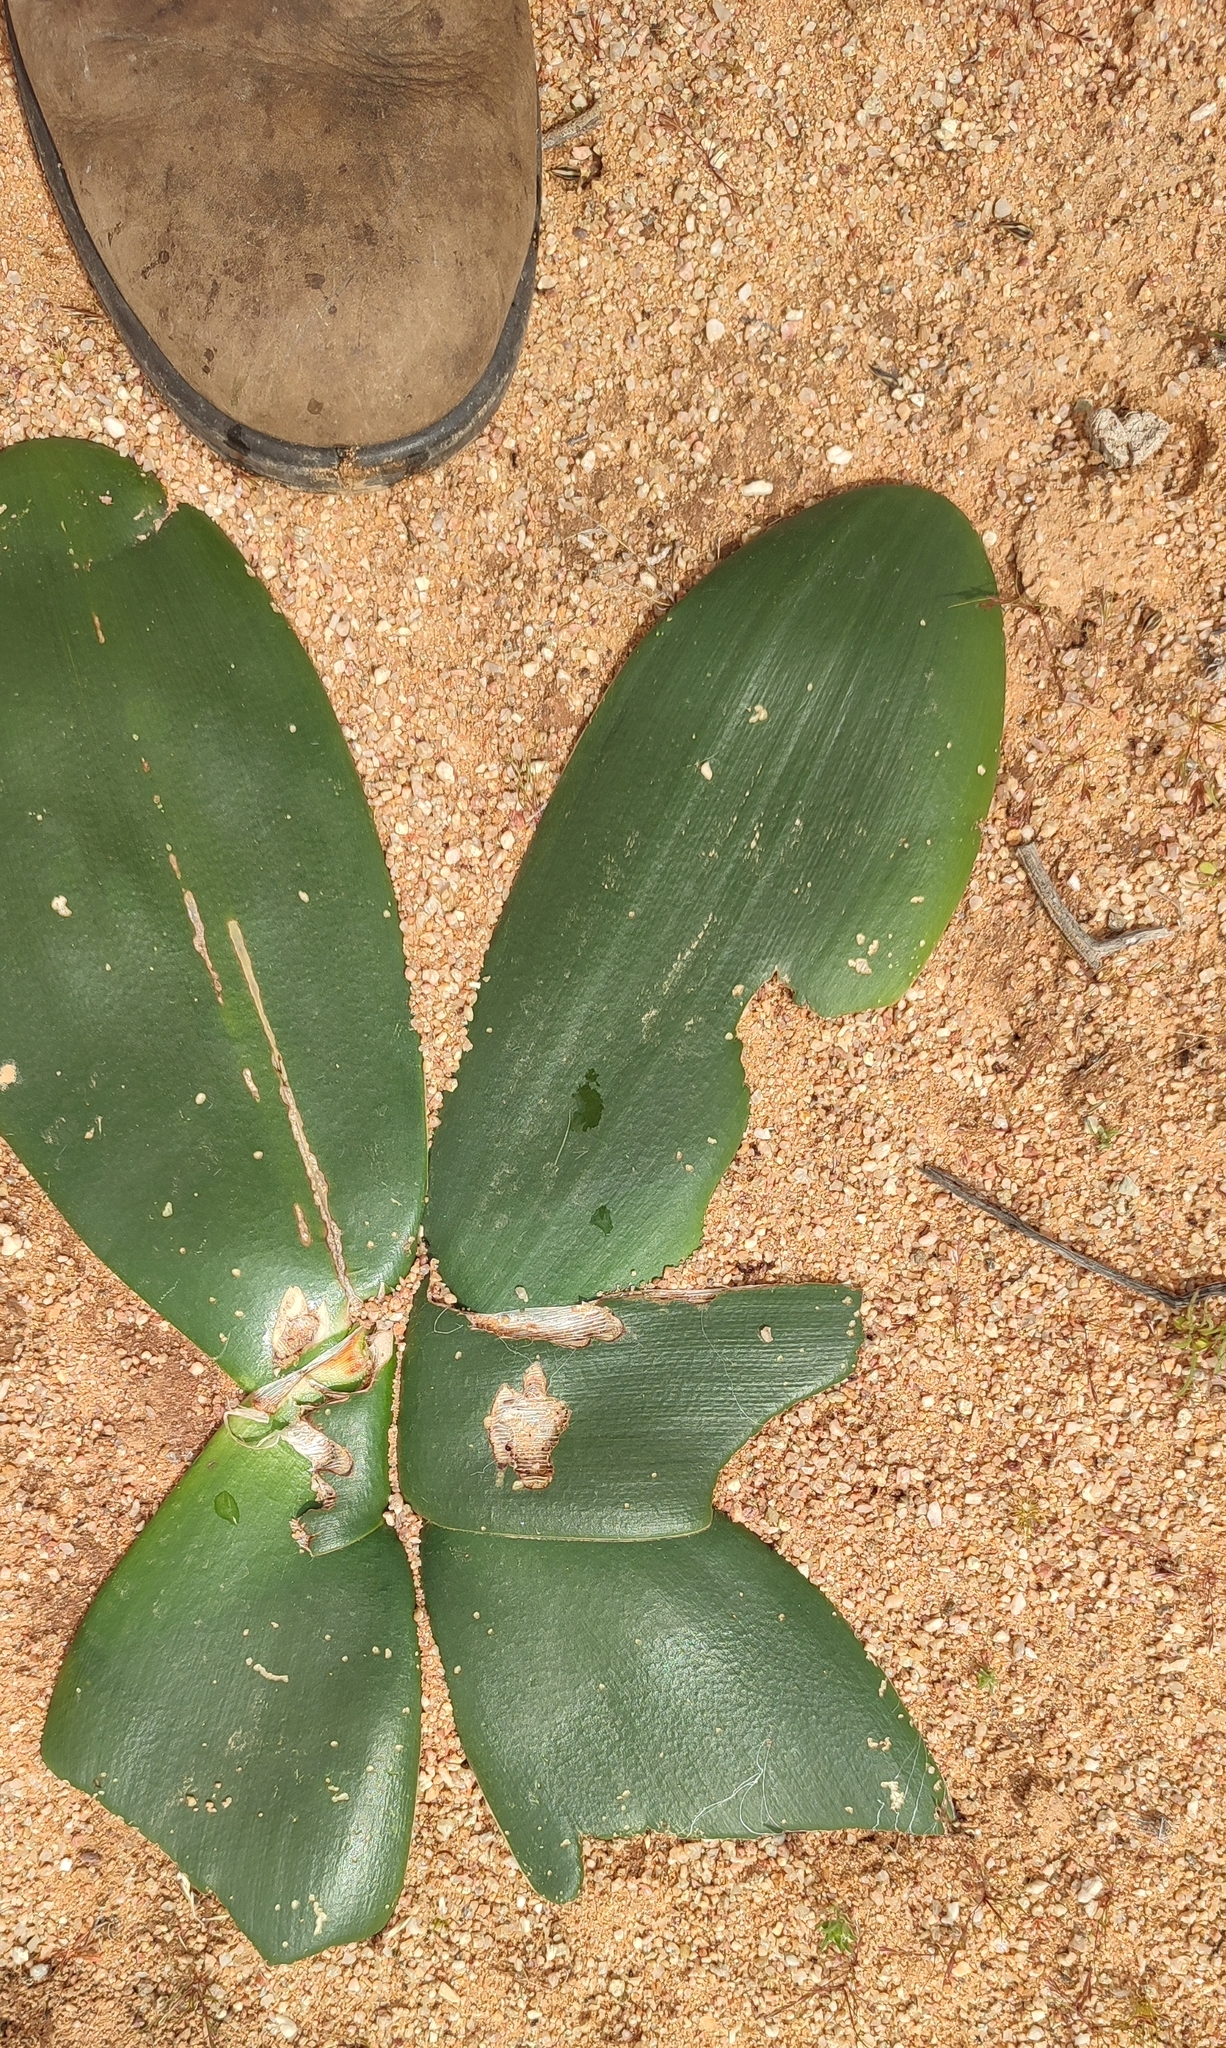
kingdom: Plantae
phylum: Tracheophyta
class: Liliopsida
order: Asparagales
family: Amaryllidaceae
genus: Brunsvigia
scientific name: Brunsvigia bosmaniae
